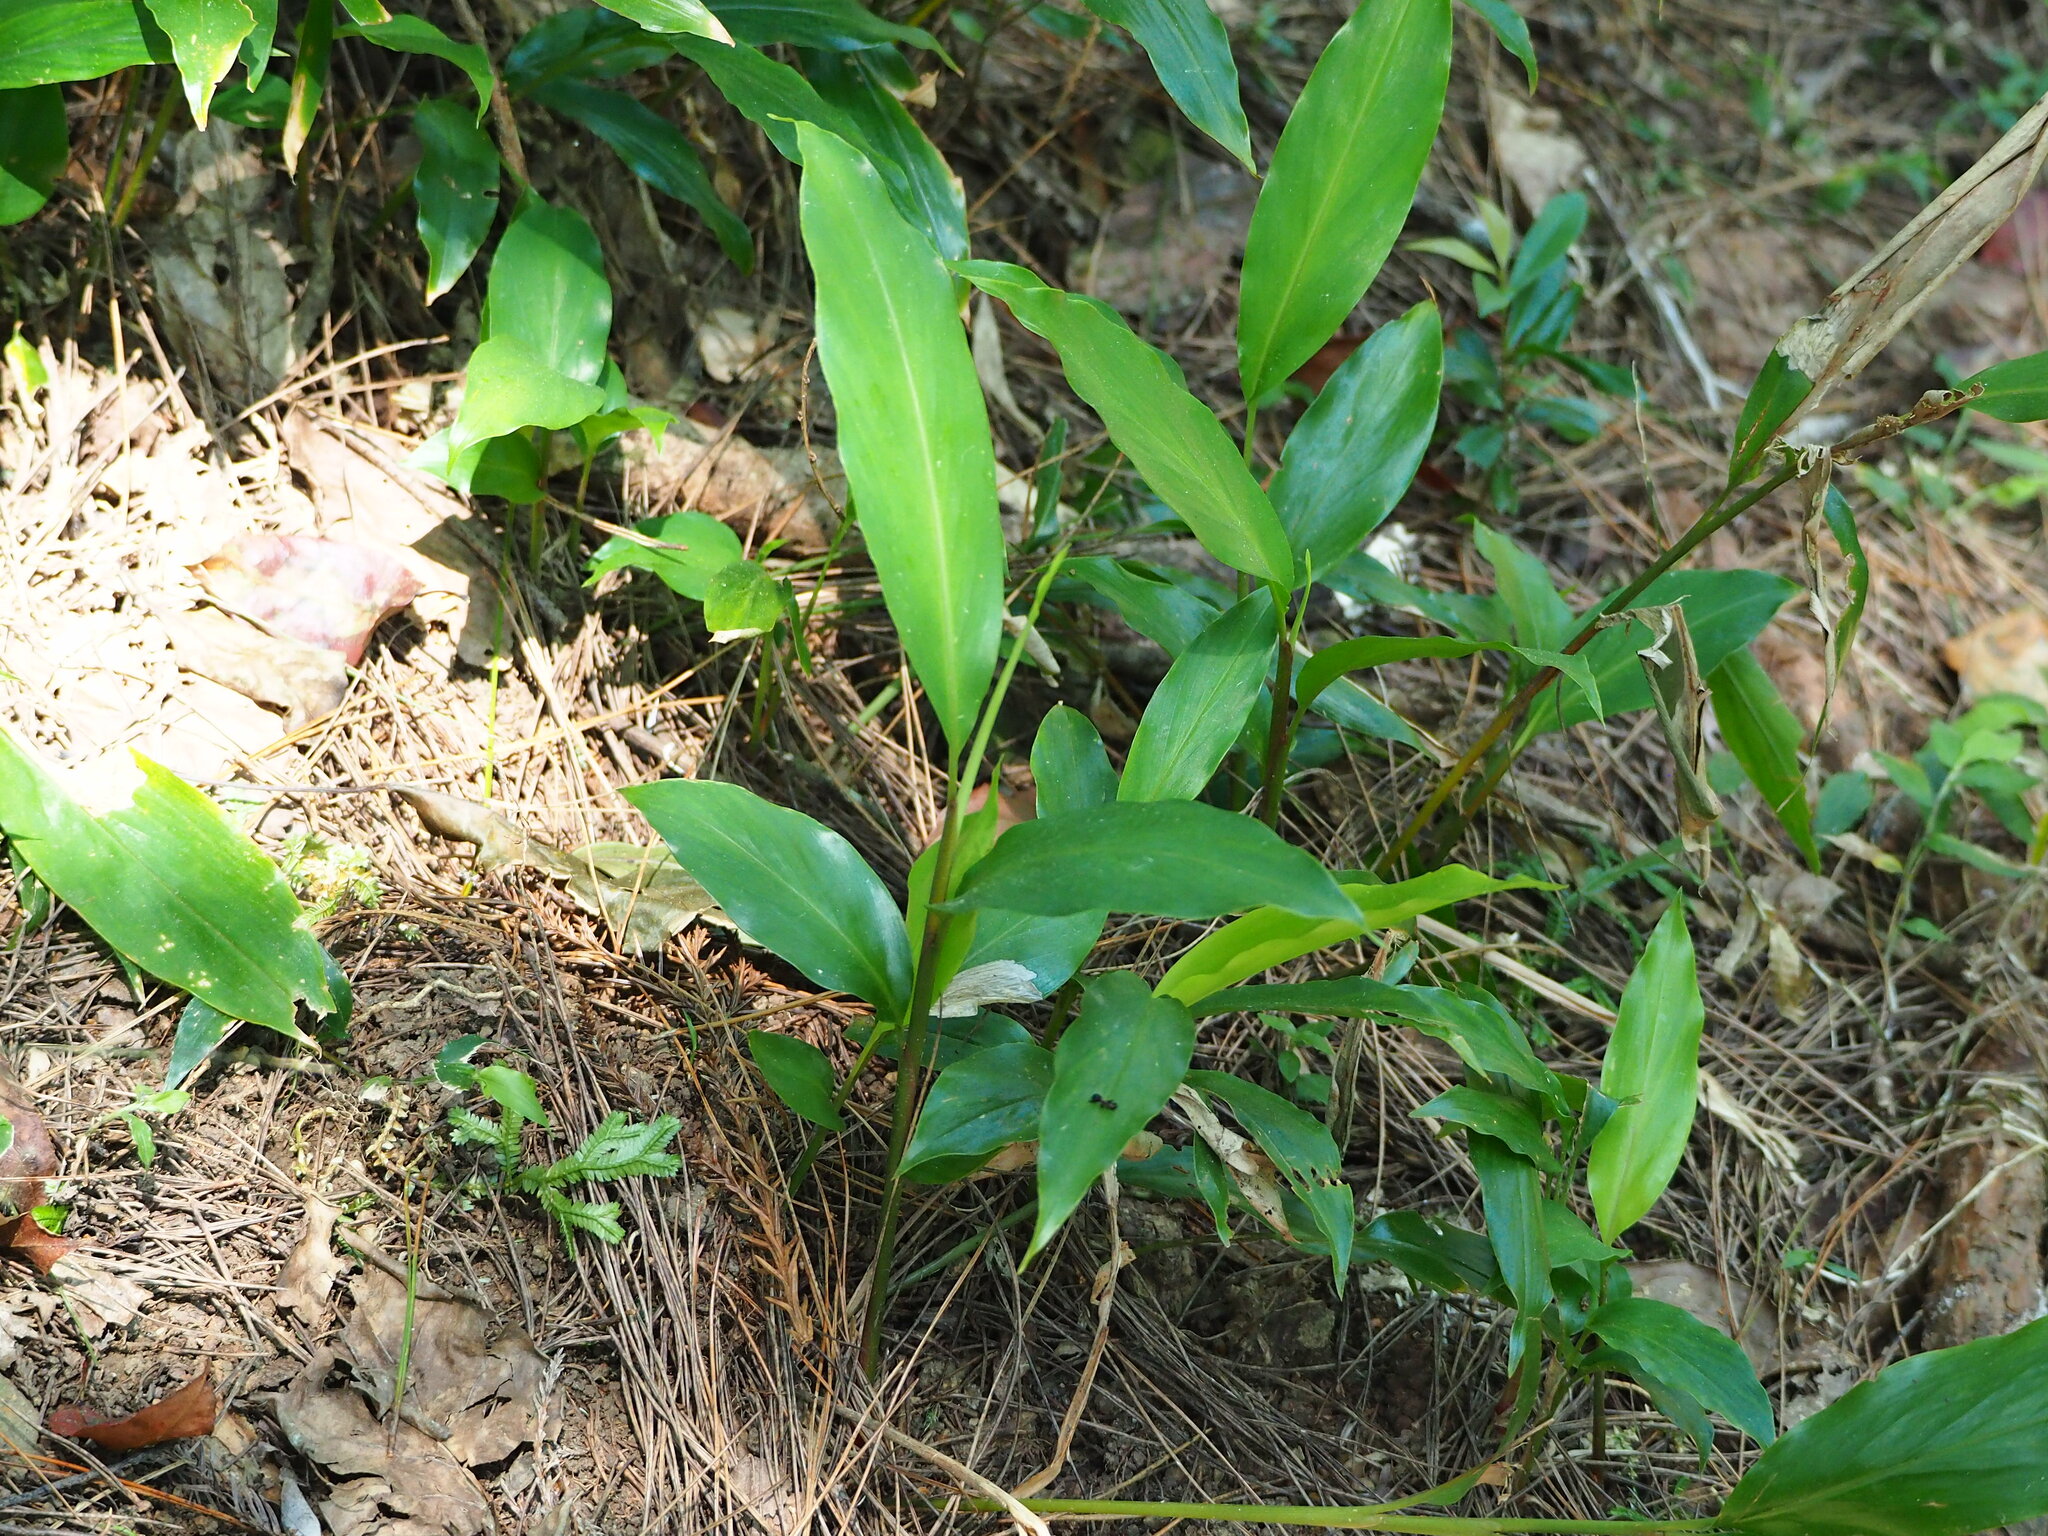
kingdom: Plantae
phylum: Tracheophyta
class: Liliopsida
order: Zingiberales
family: Zingiberaceae
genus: Alpinia
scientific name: Alpinia intermedia
